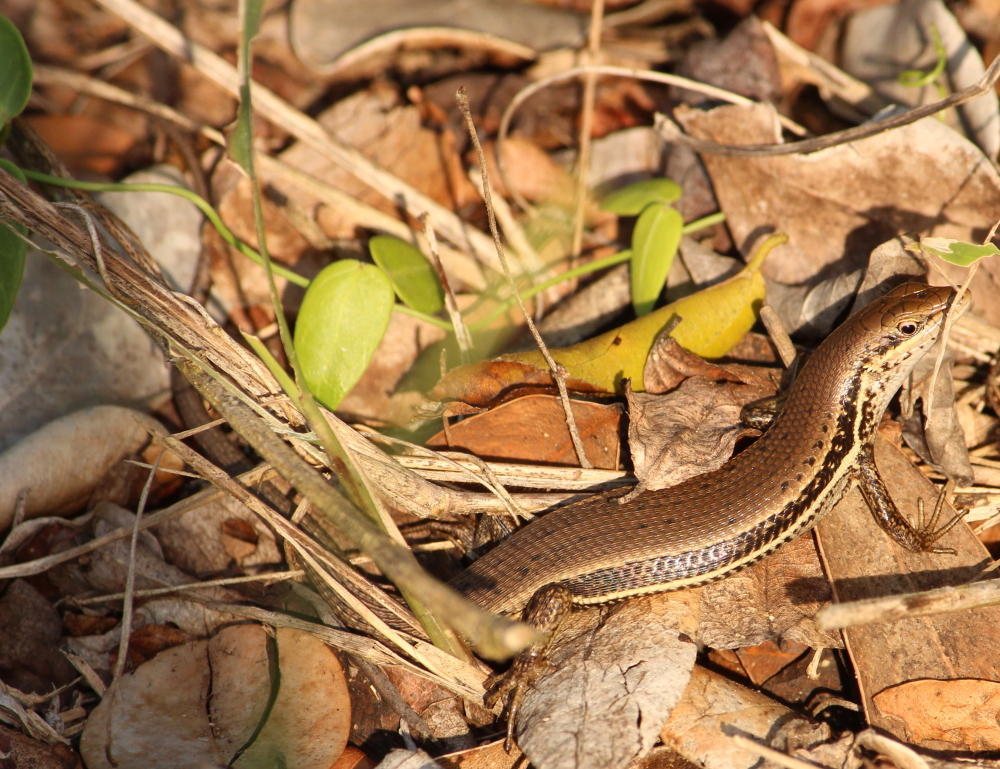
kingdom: Animalia
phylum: Chordata
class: Squamata
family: Scincidae
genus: Trachylepis
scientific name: Trachylepis depressa
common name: Eastern coastal skink
